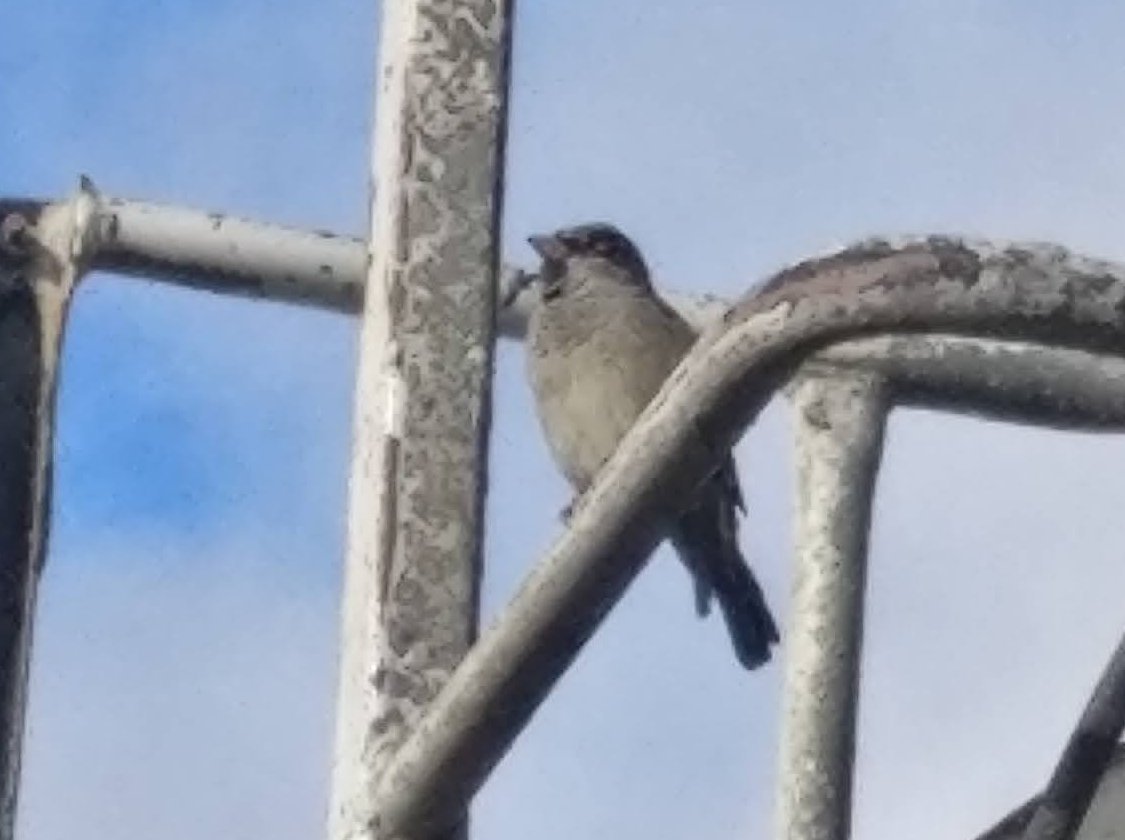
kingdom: Animalia
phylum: Chordata
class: Aves
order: Passeriformes
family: Passeridae
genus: Passer
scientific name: Passer domesticus
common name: House sparrow
